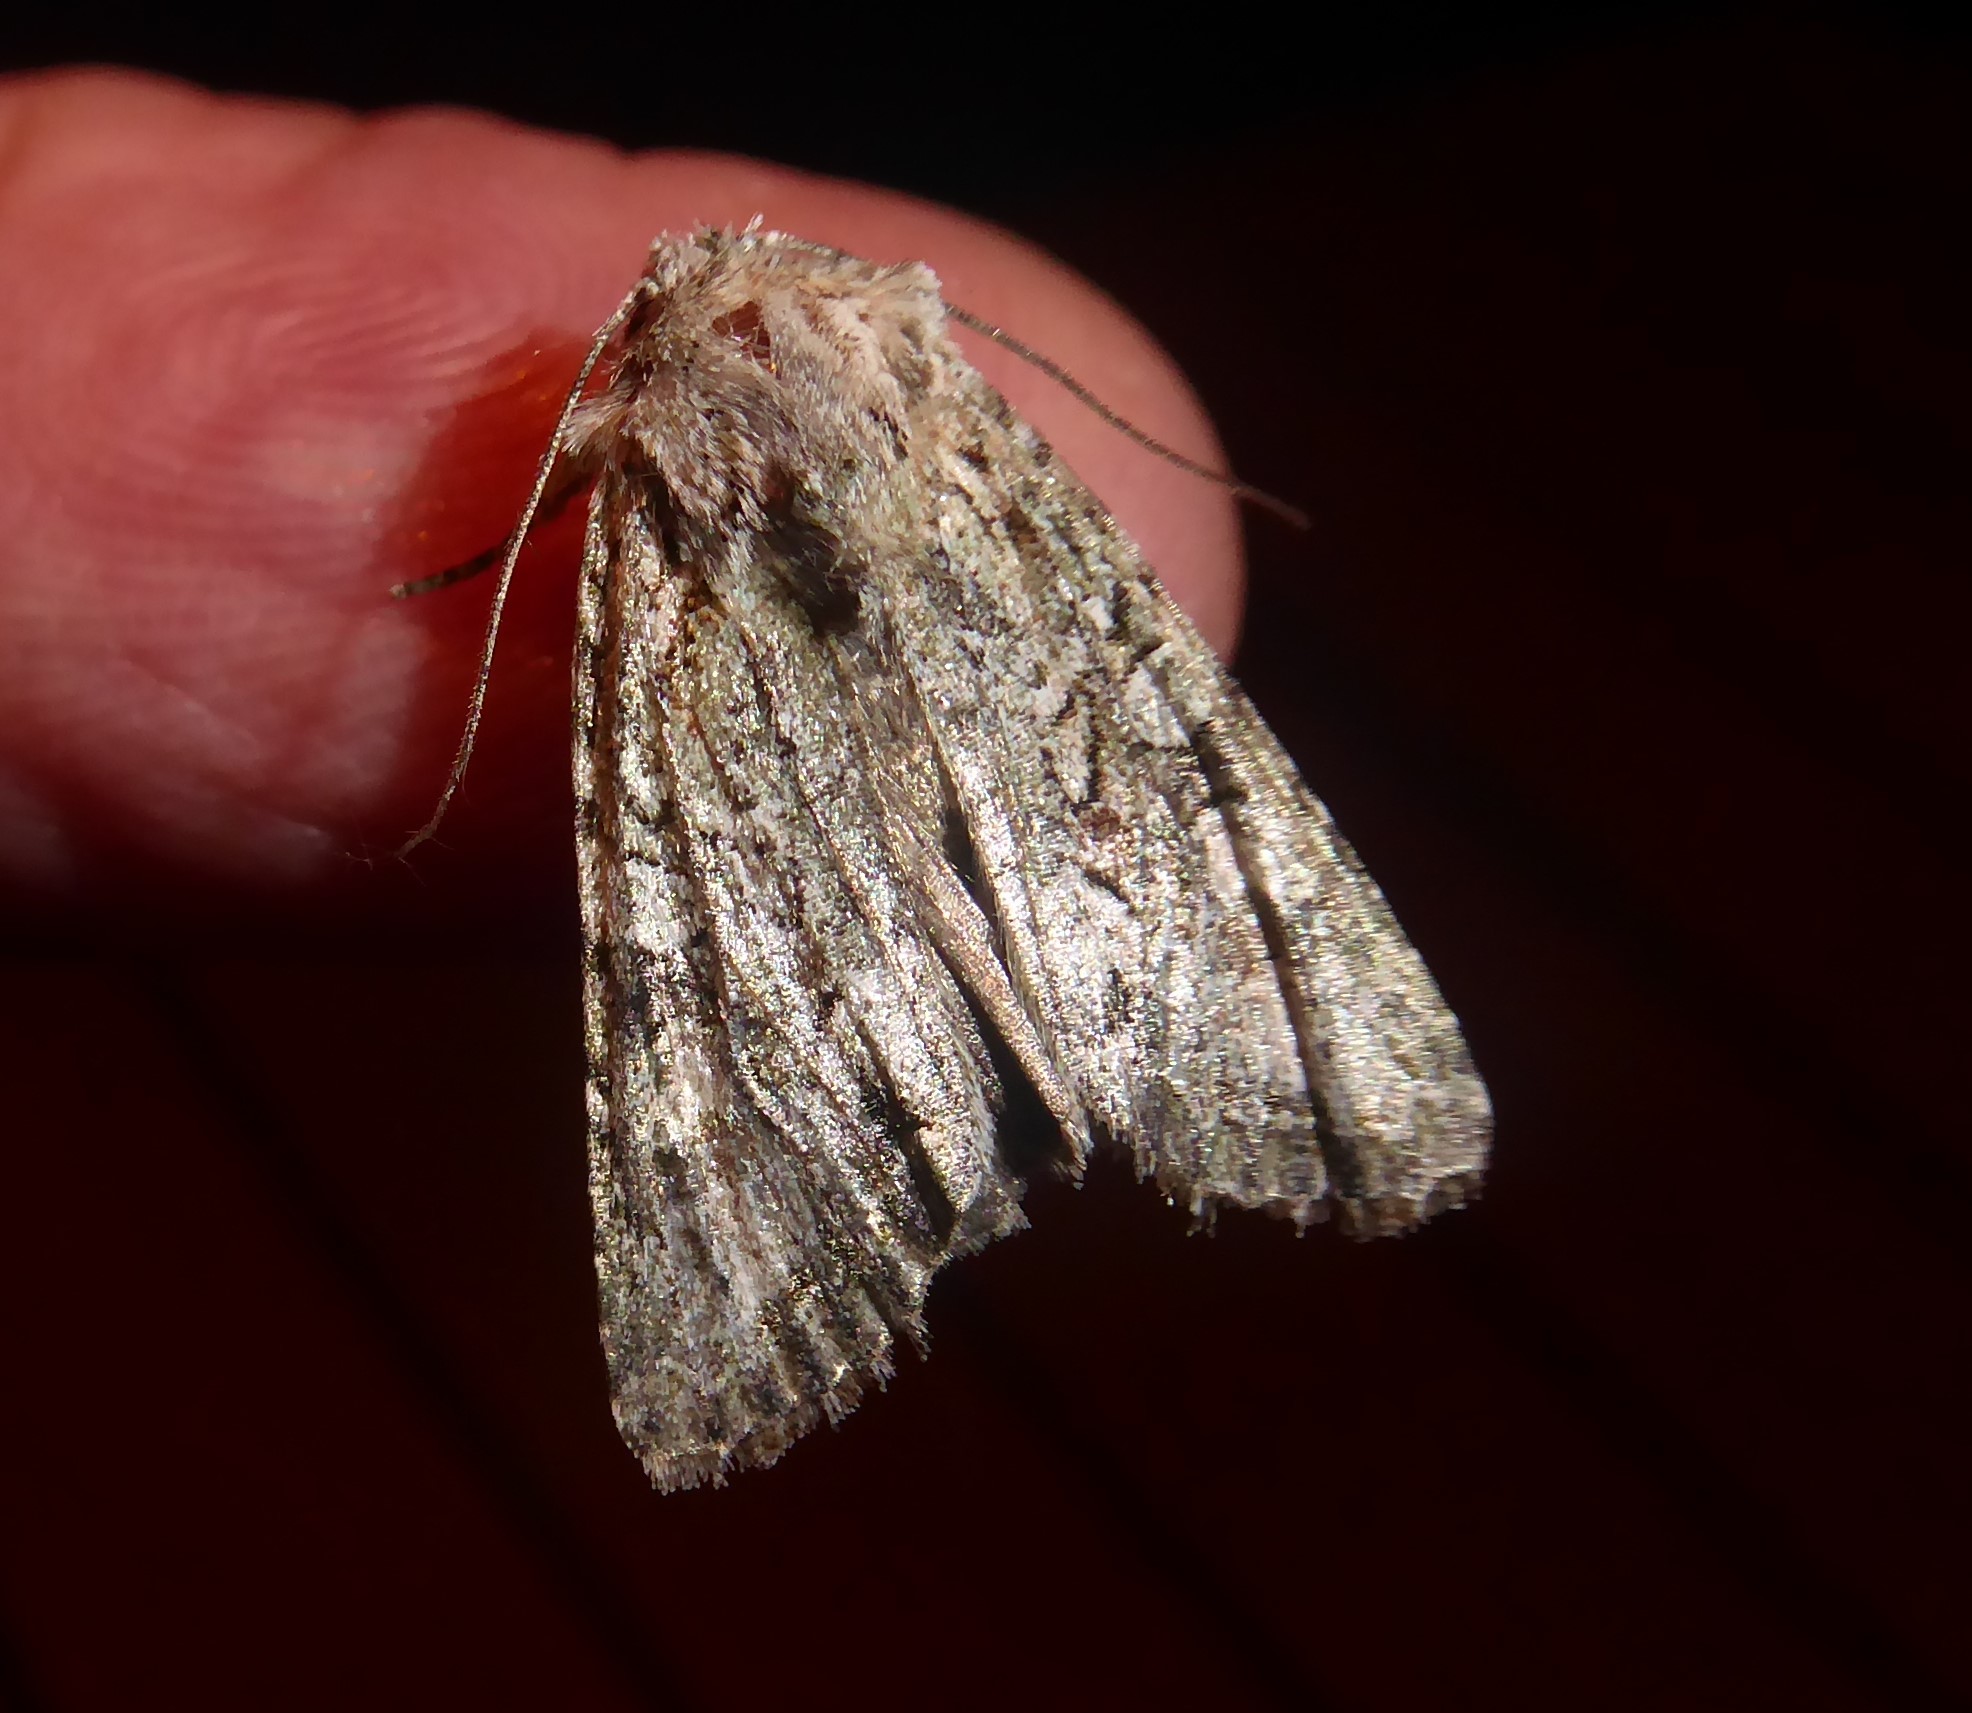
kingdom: Animalia
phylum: Arthropoda
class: Insecta
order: Lepidoptera
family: Noctuidae
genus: Ichneutica
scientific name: Ichneutica mutans
